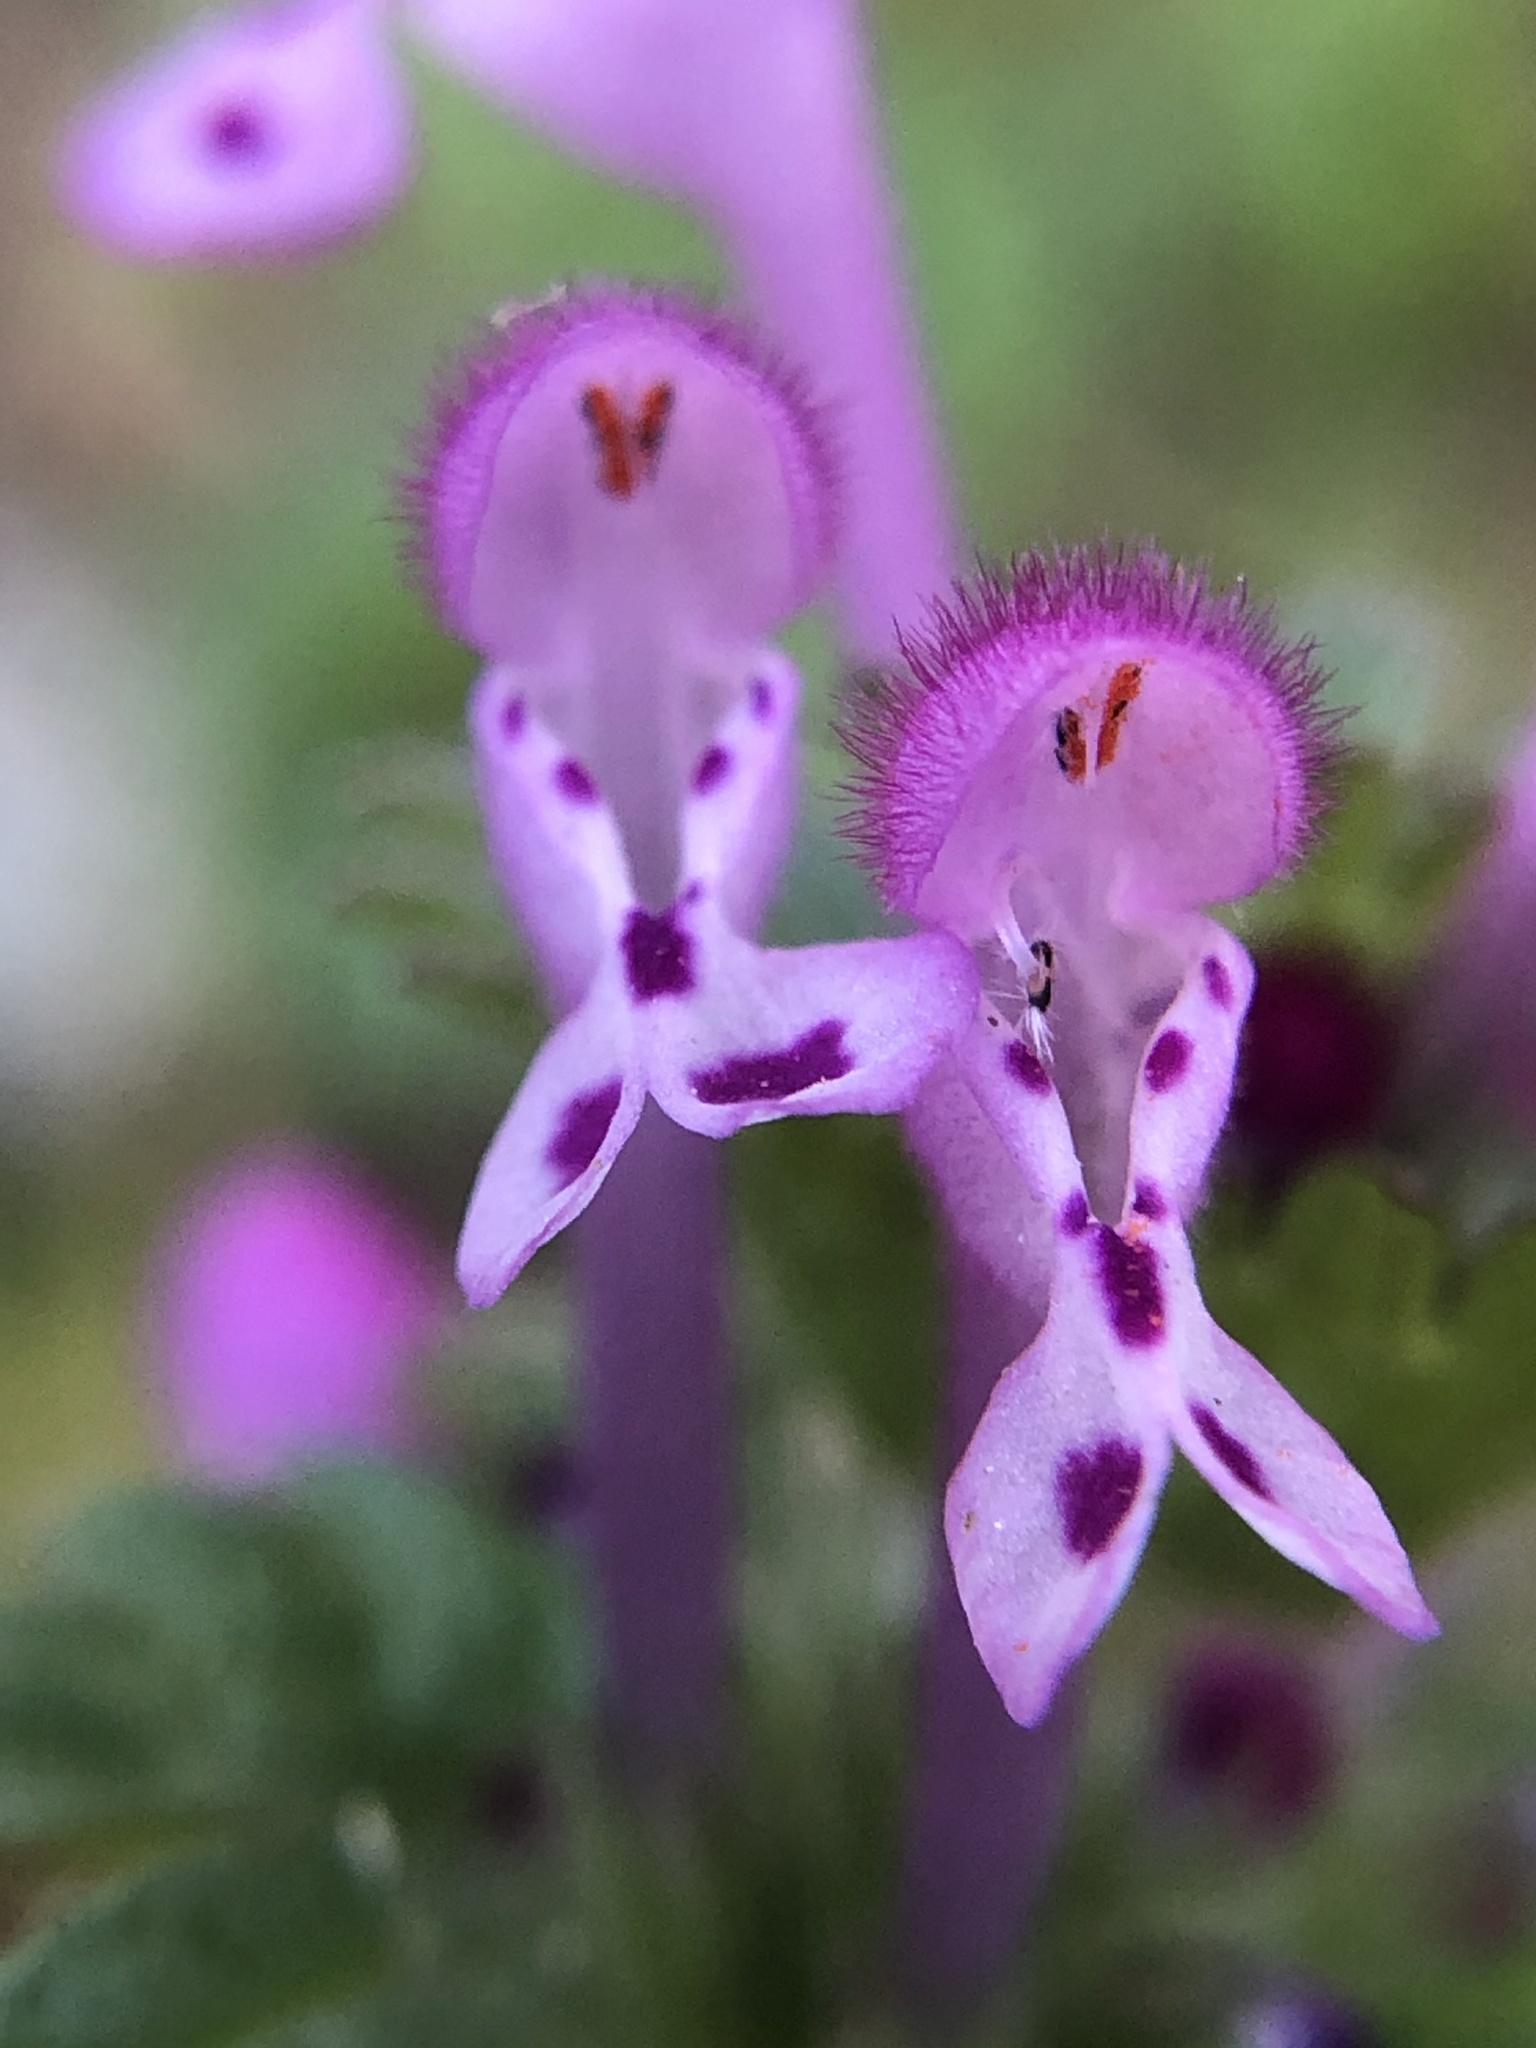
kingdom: Plantae
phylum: Tracheophyta
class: Magnoliopsida
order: Lamiales
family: Lamiaceae
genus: Lamium
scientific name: Lamium amplexicaule
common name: Henbit dead-nettle
